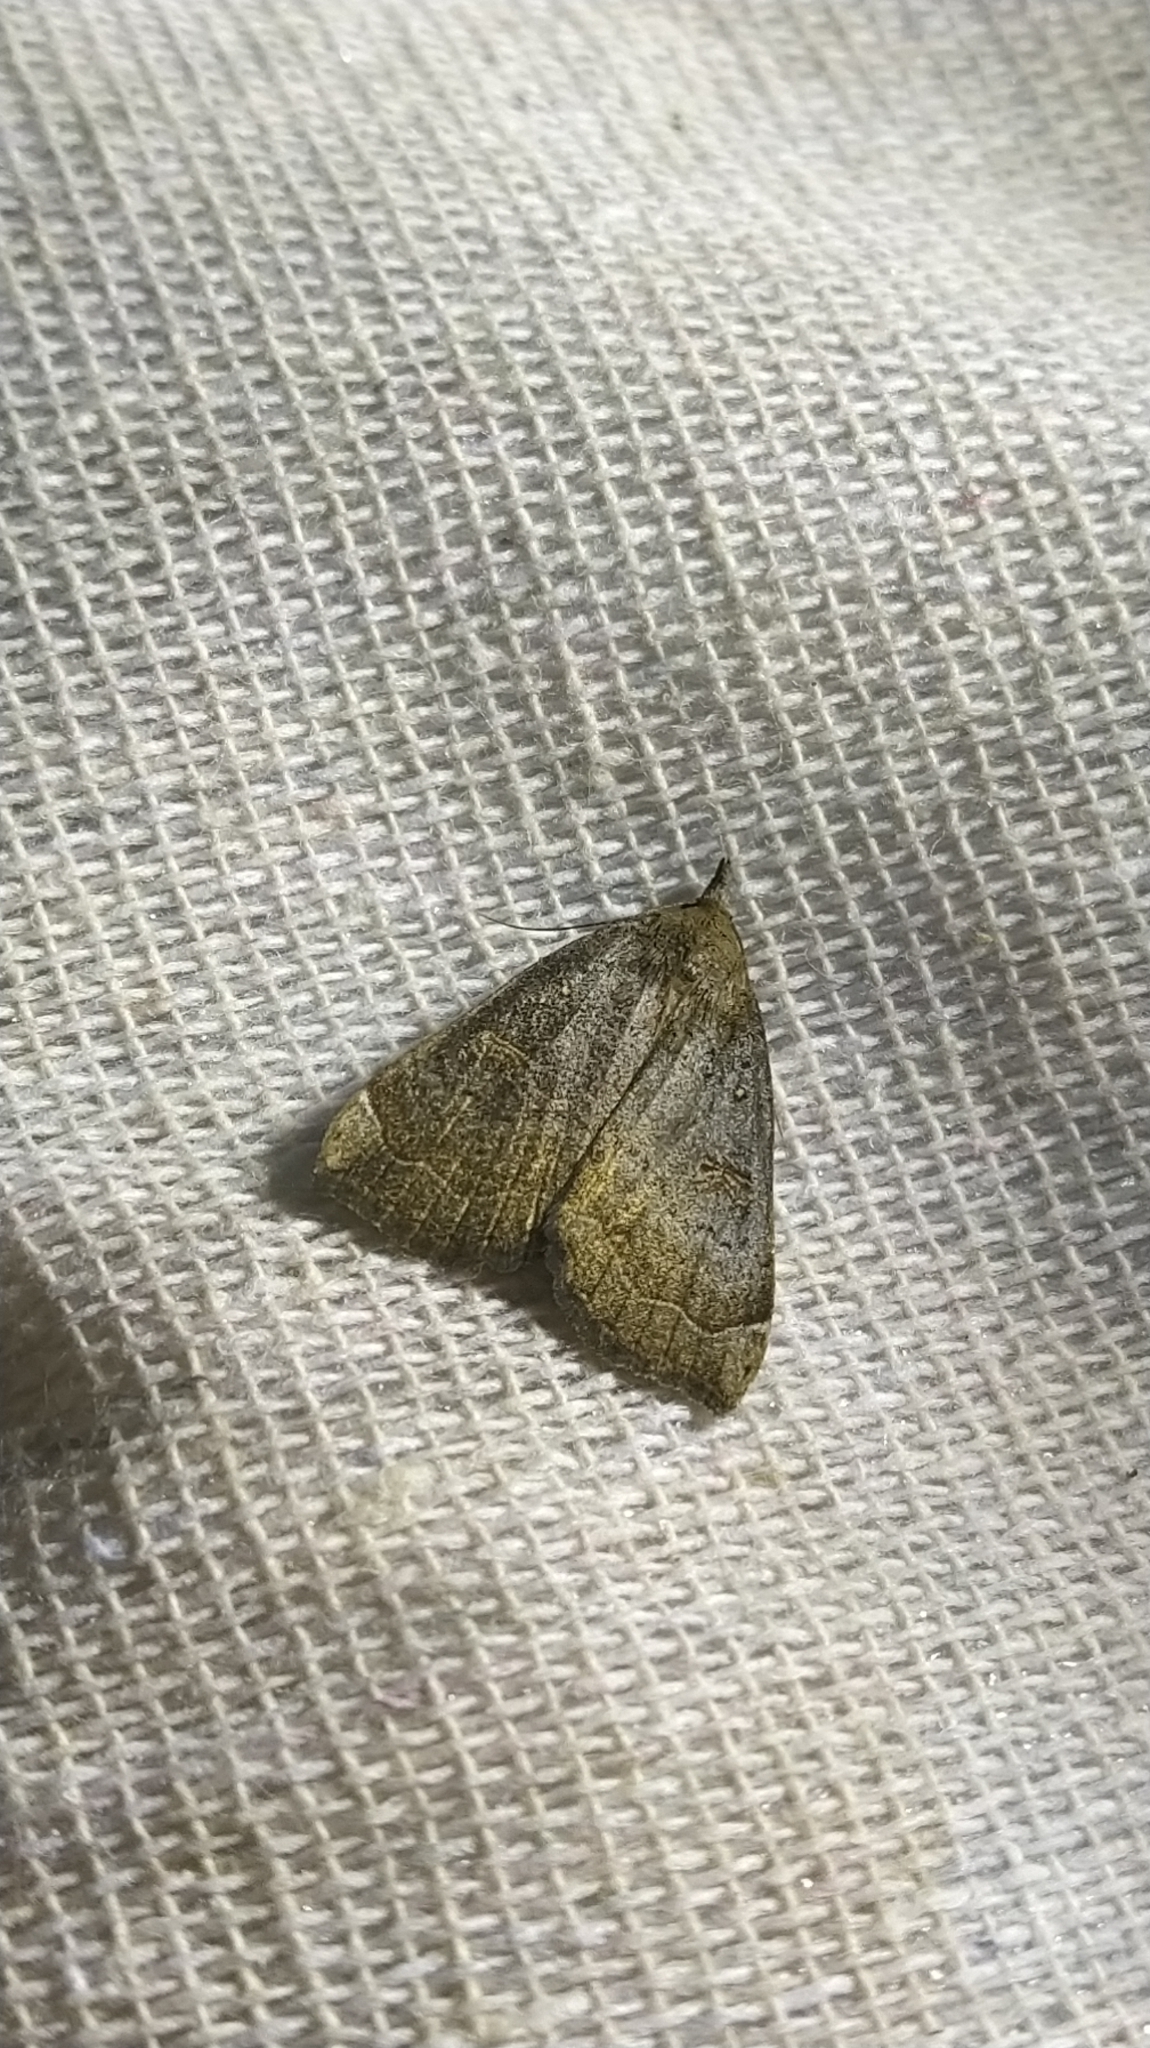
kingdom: Animalia
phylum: Arthropoda
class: Insecta
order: Lepidoptera
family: Erebidae
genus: Rhapsa
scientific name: Rhapsa scotosialis
